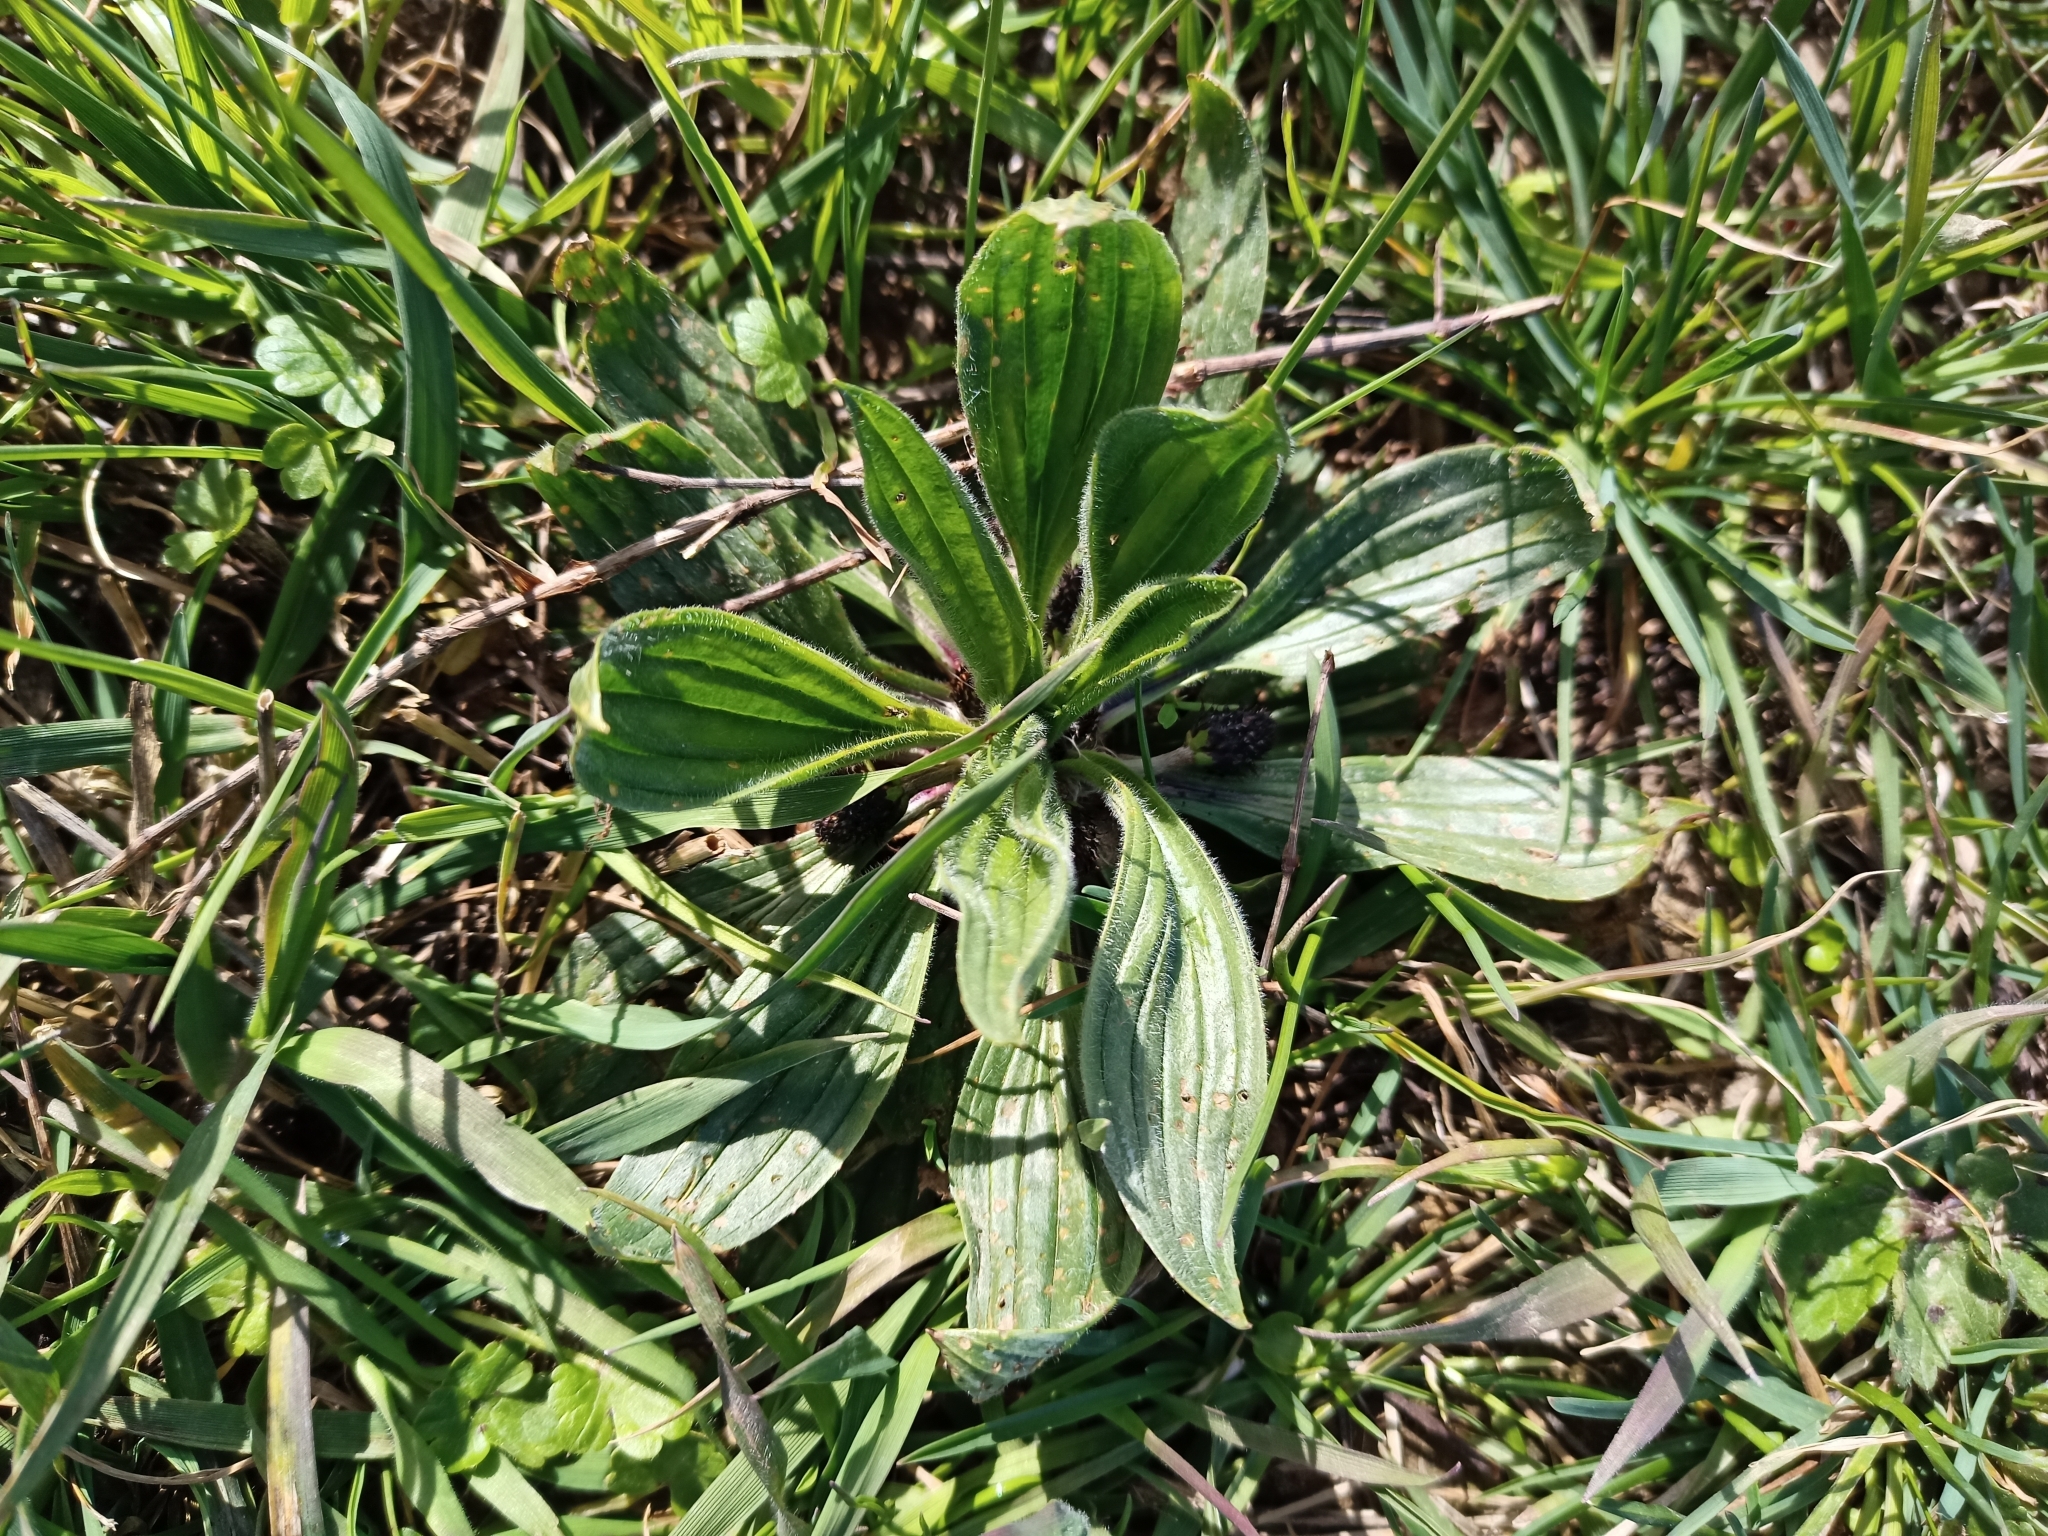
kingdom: Plantae
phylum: Tracheophyta
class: Magnoliopsida
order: Lamiales
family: Plantaginaceae
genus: Plantago
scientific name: Plantago lanceolata
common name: Ribwort plantain
